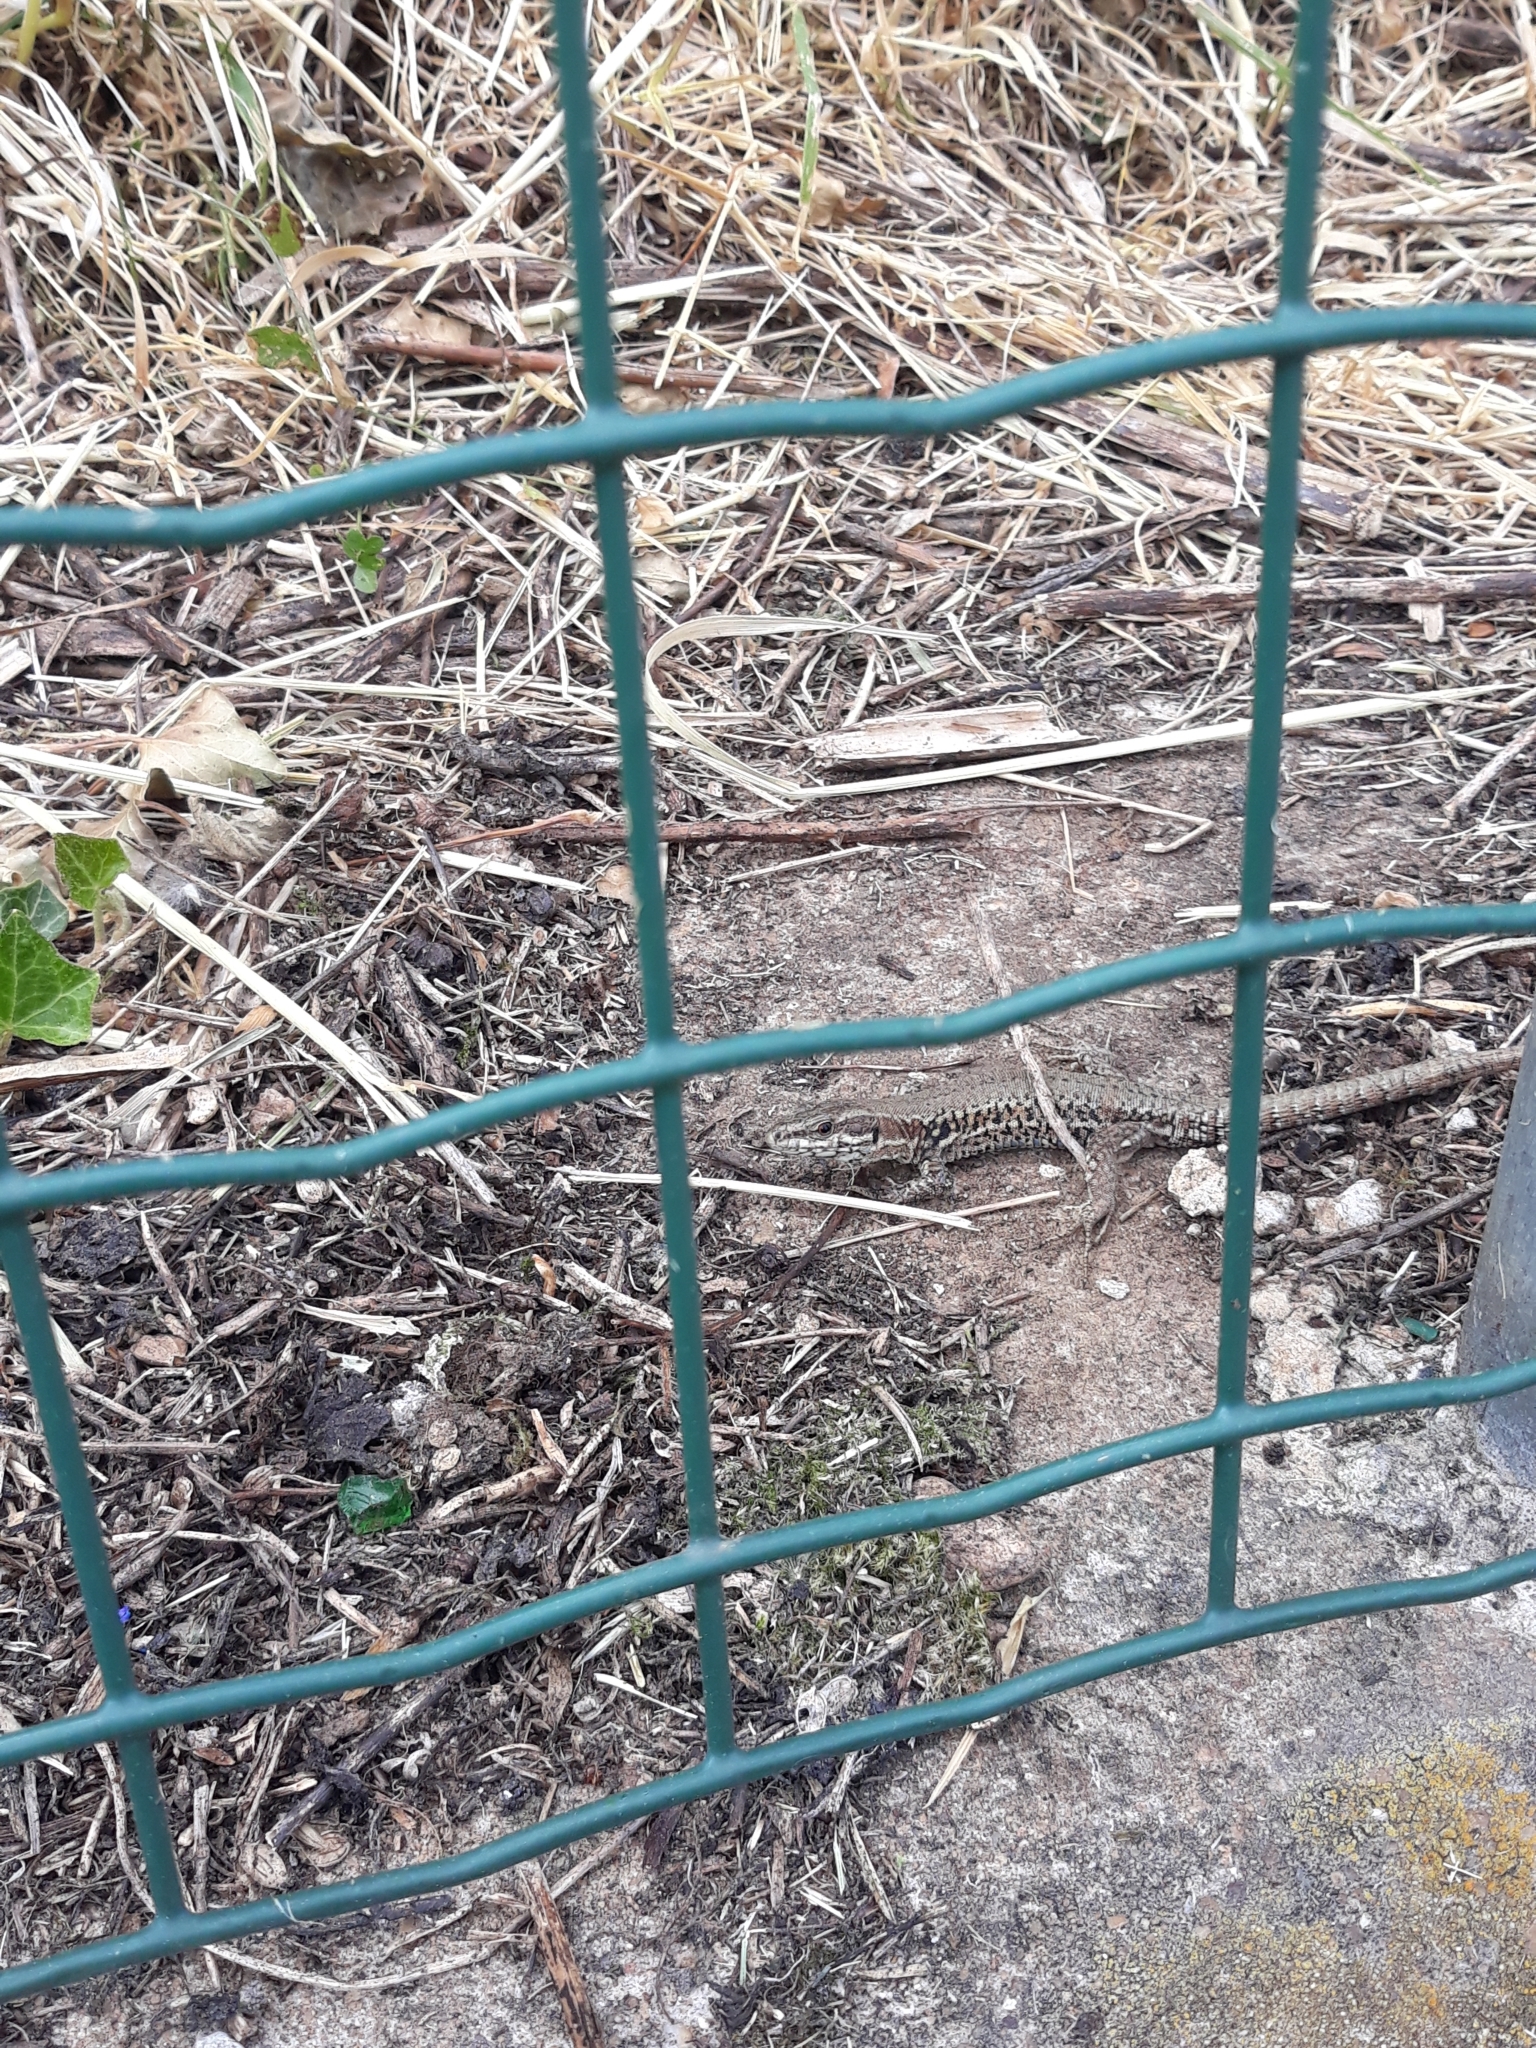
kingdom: Animalia
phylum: Chordata
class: Squamata
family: Lacertidae
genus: Podarcis
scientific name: Podarcis muralis
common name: Common wall lizard
